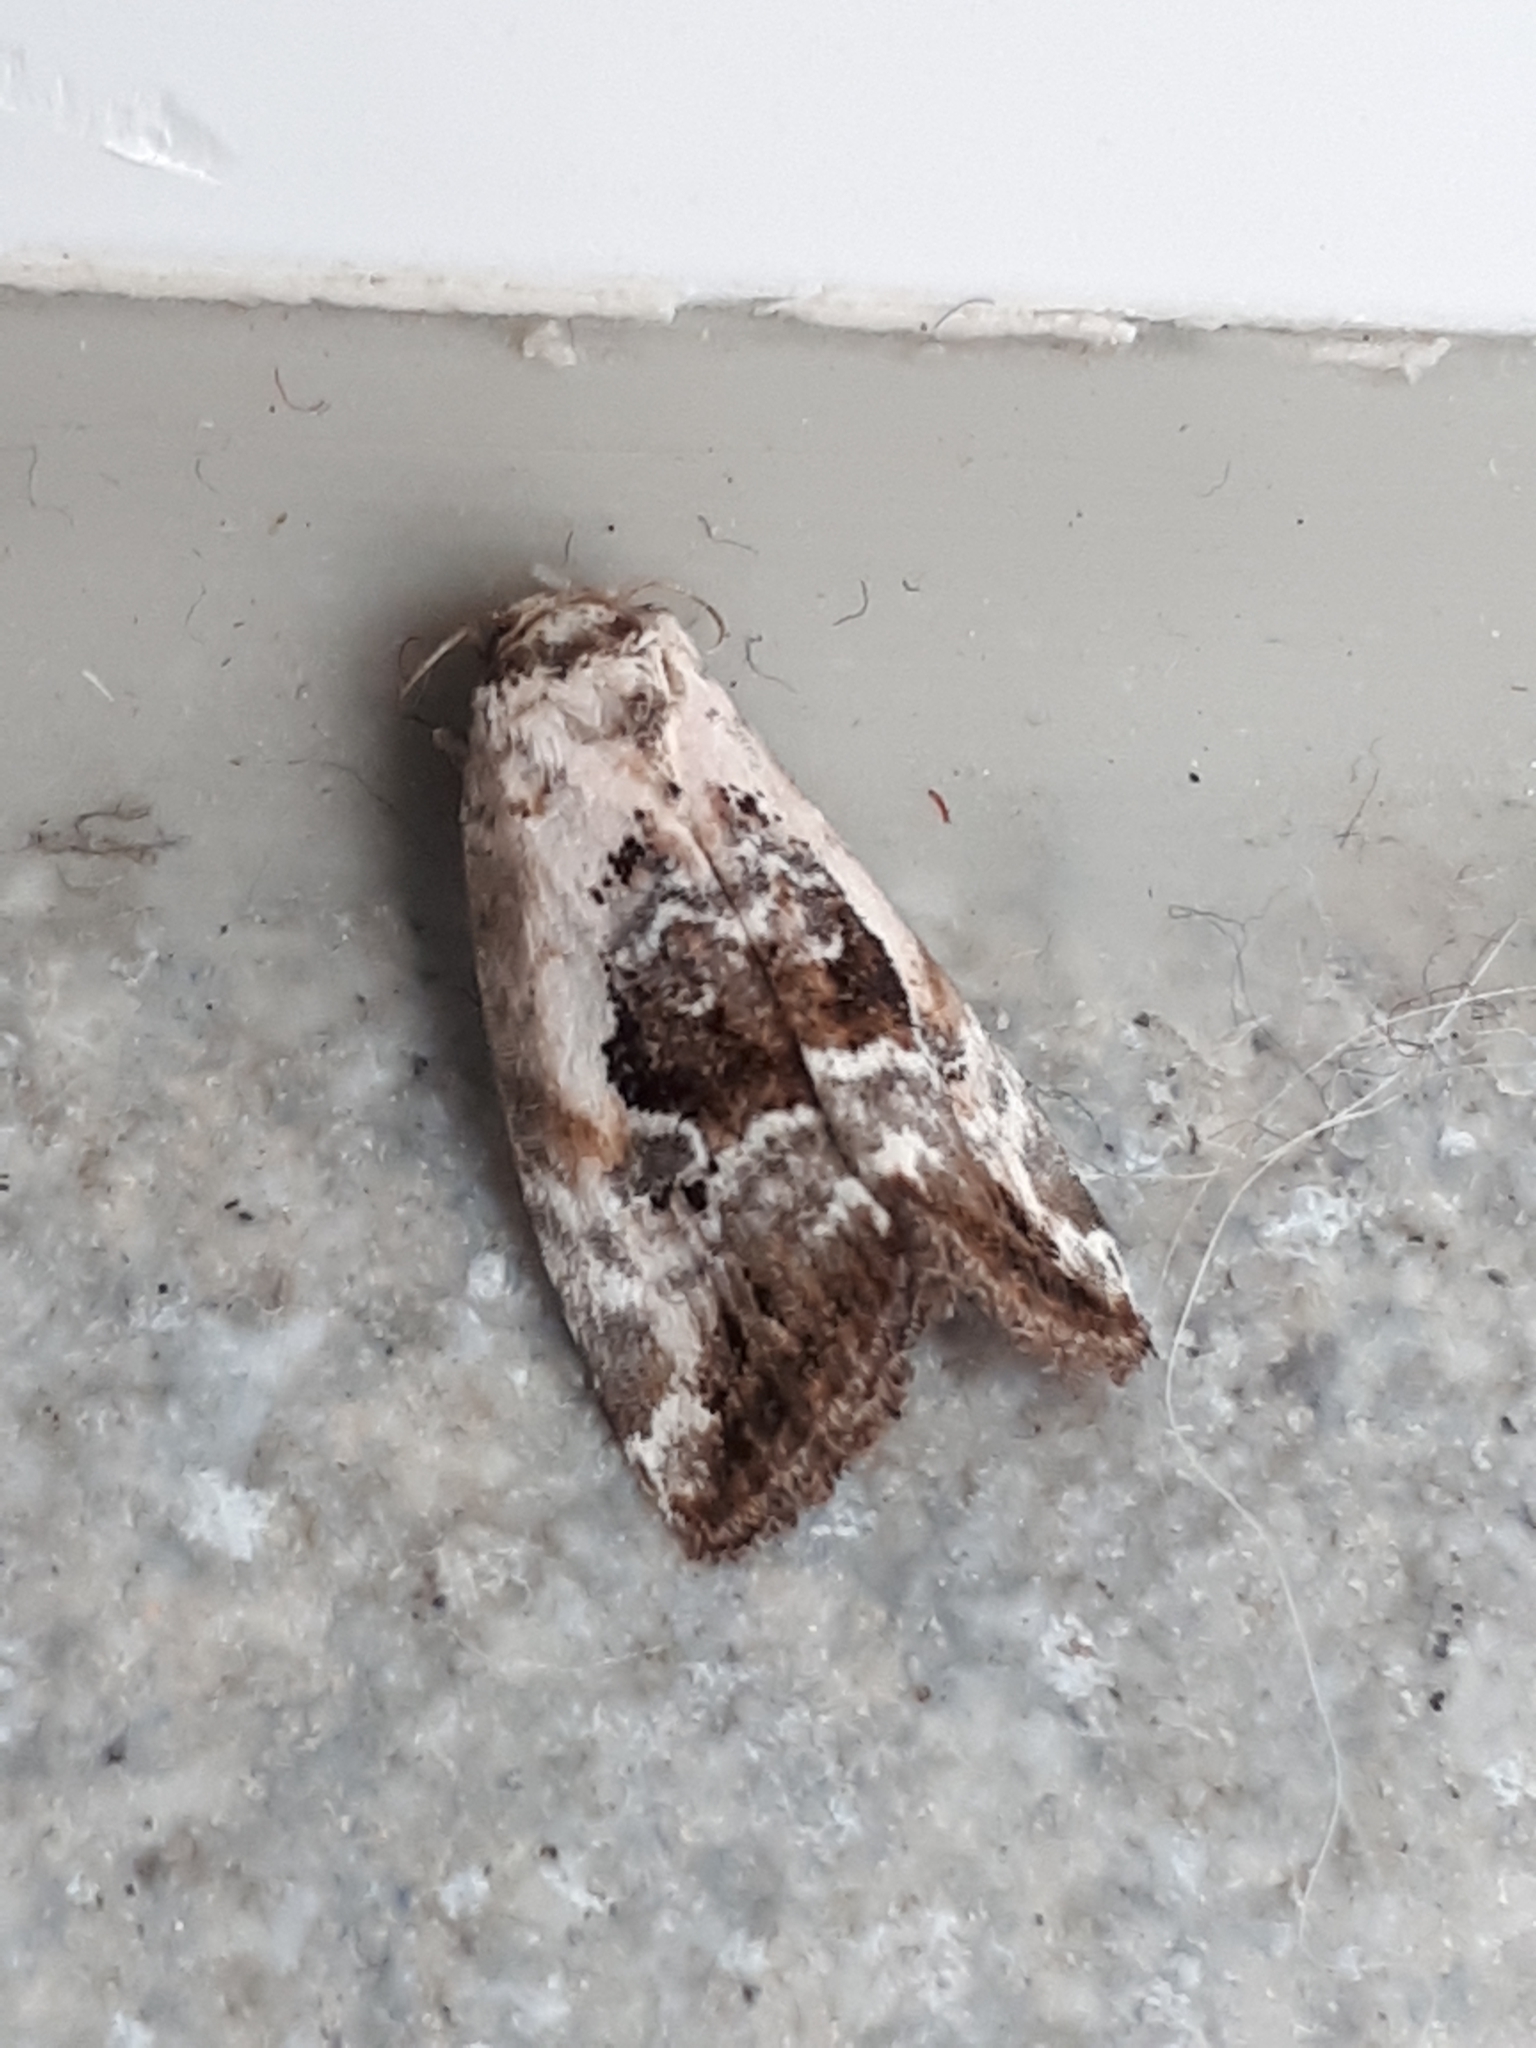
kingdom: Animalia
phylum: Arthropoda
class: Insecta
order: Lepidoptera
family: Noctuidae
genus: Elaphria
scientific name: Elaphria venustula
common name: Rosy marbled
